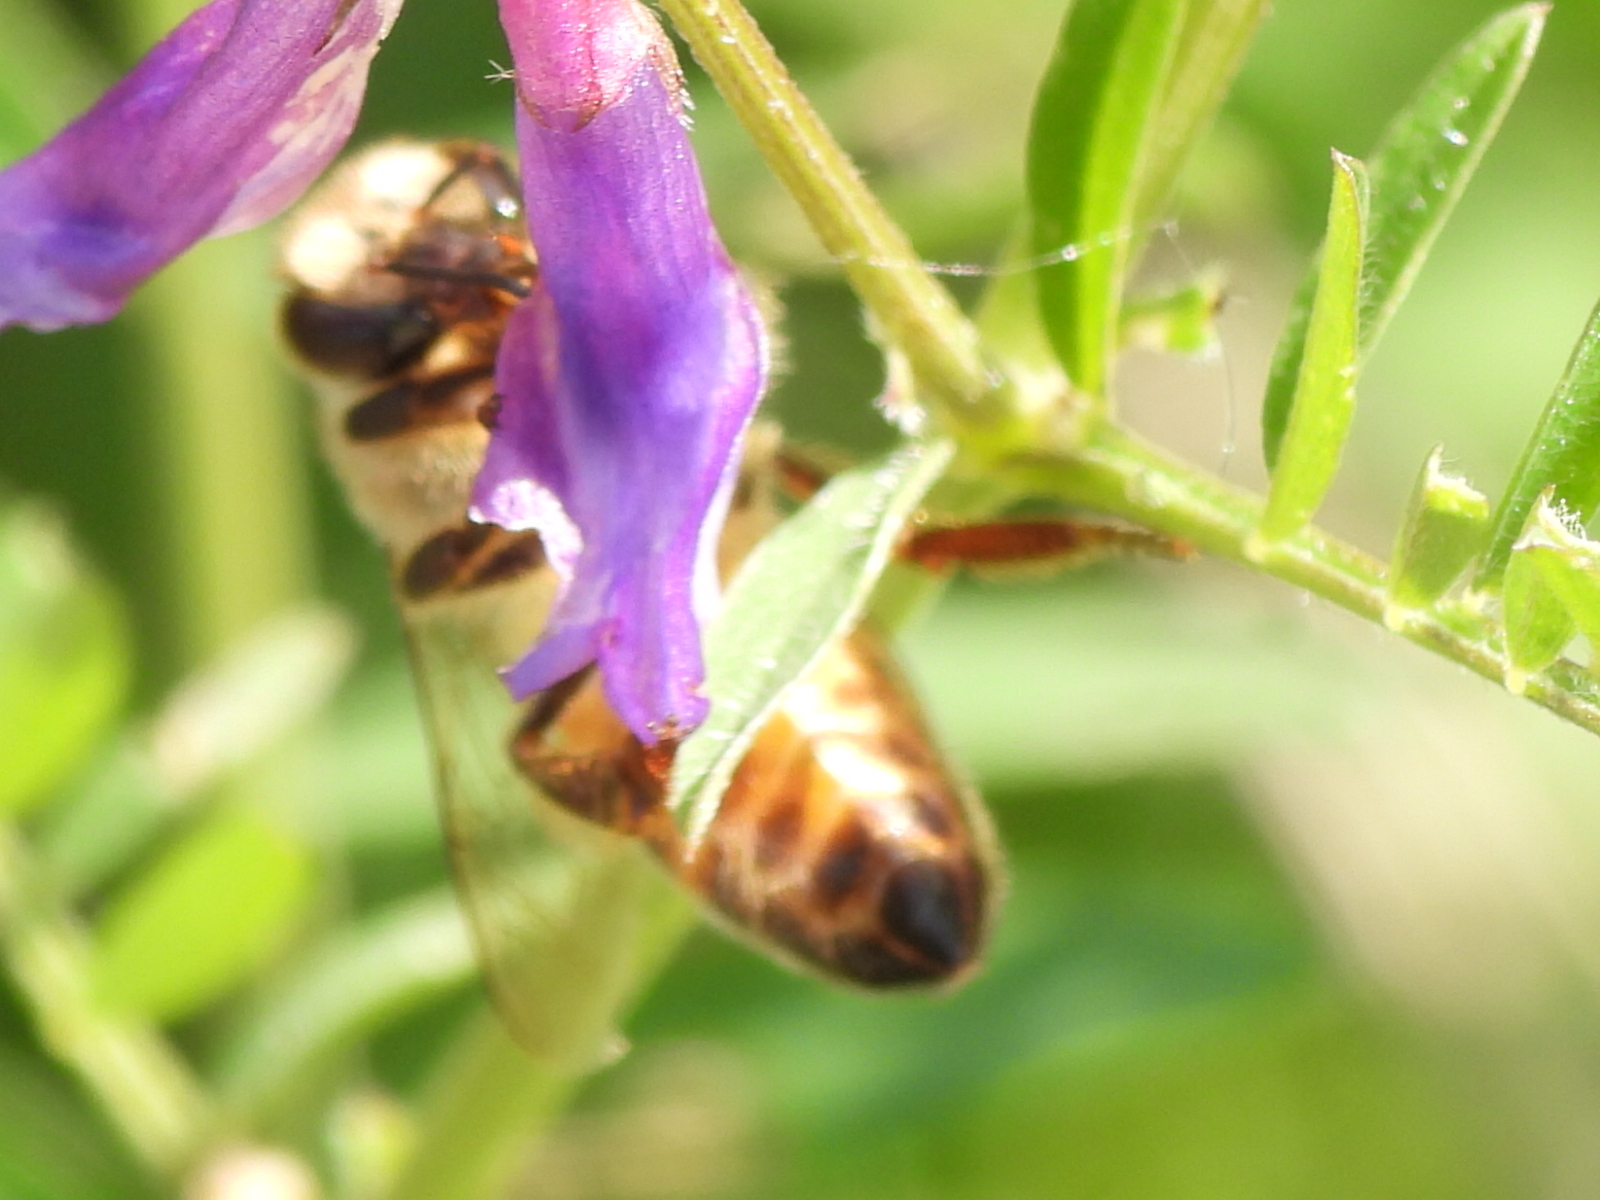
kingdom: Animalia
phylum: Arthropoda
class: Insecta
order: Hymenoptera
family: Apidae
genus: Apis
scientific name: Apis mellifera
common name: Honey bee
